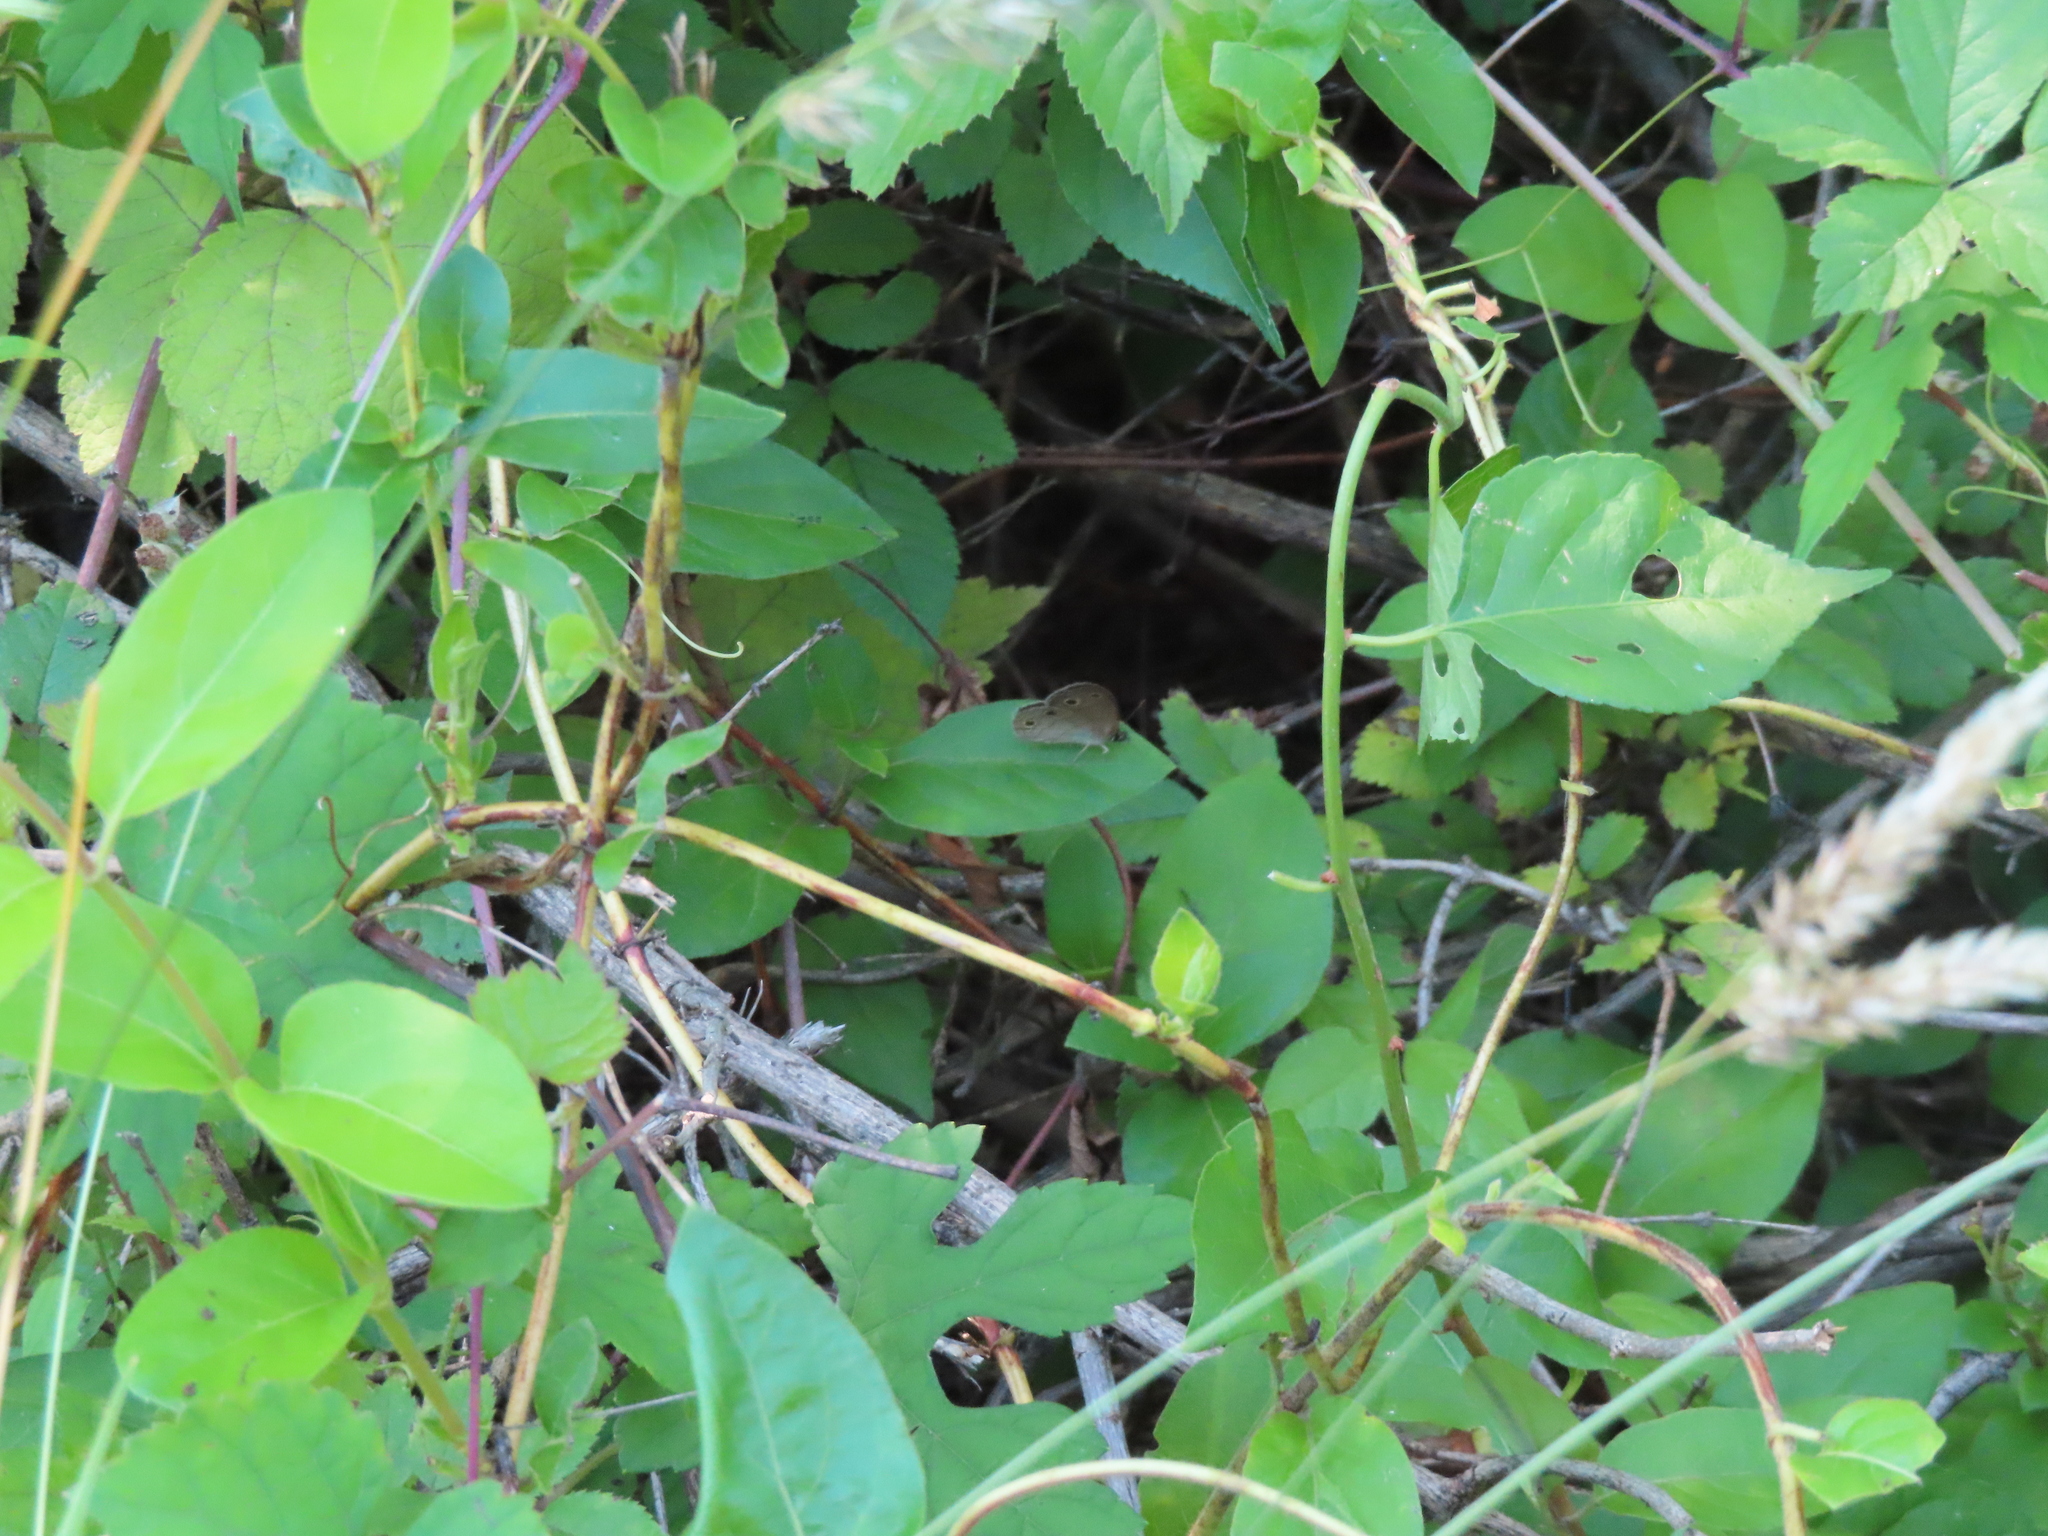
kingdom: Animalia
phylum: Arthropoda
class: Insecta
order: Lepidoptera
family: Nymphalidae
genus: Euptychia
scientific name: Euptychia cymela
